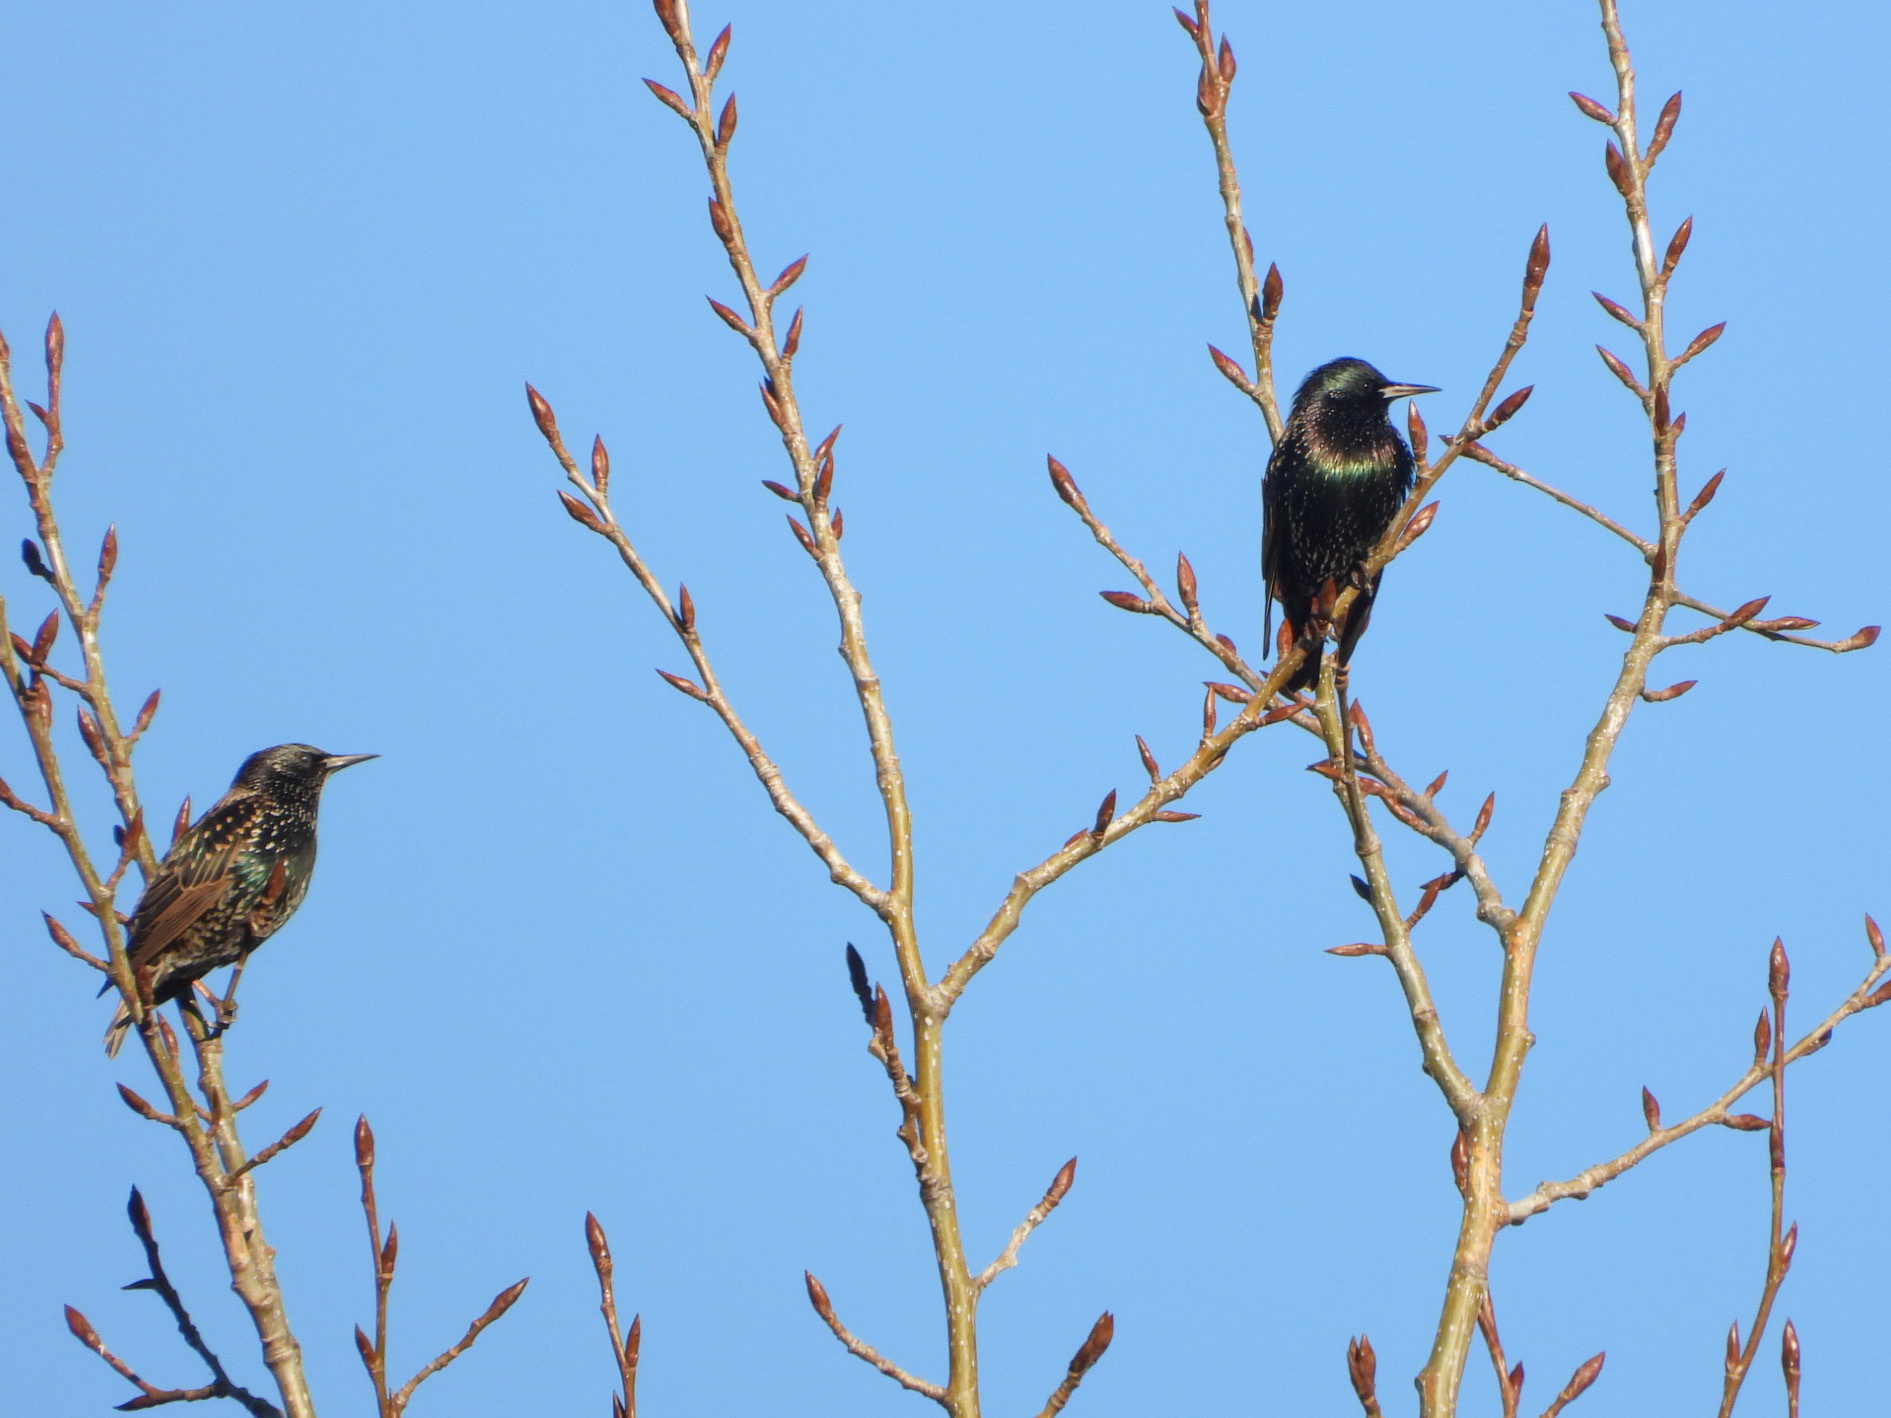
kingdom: Animalia
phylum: Chordata
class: Aves
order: Passeriformes
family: Sturnidae
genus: Sturnus
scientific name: Sturnus vulgaris
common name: Common starling
